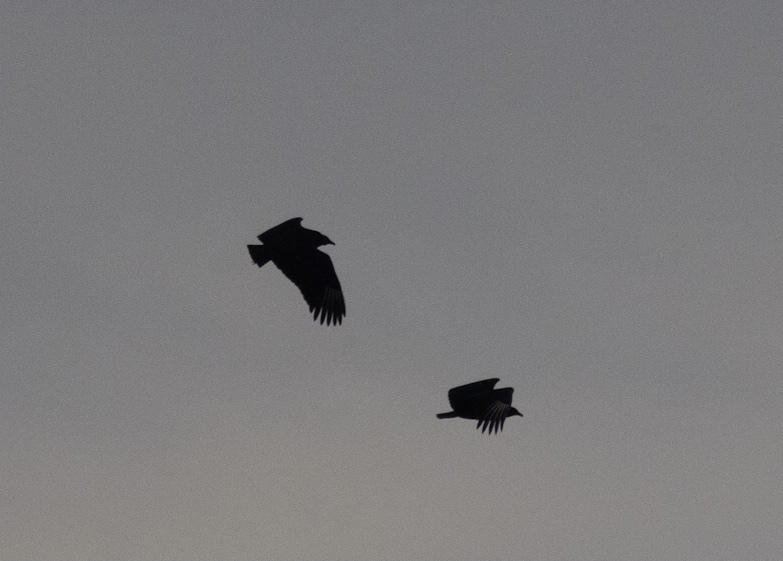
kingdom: Animalia
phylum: Chordata
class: Aves
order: Accipitriformes
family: Cathartidae
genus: Coragyps
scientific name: Coragyps atratus
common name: Black vulture
